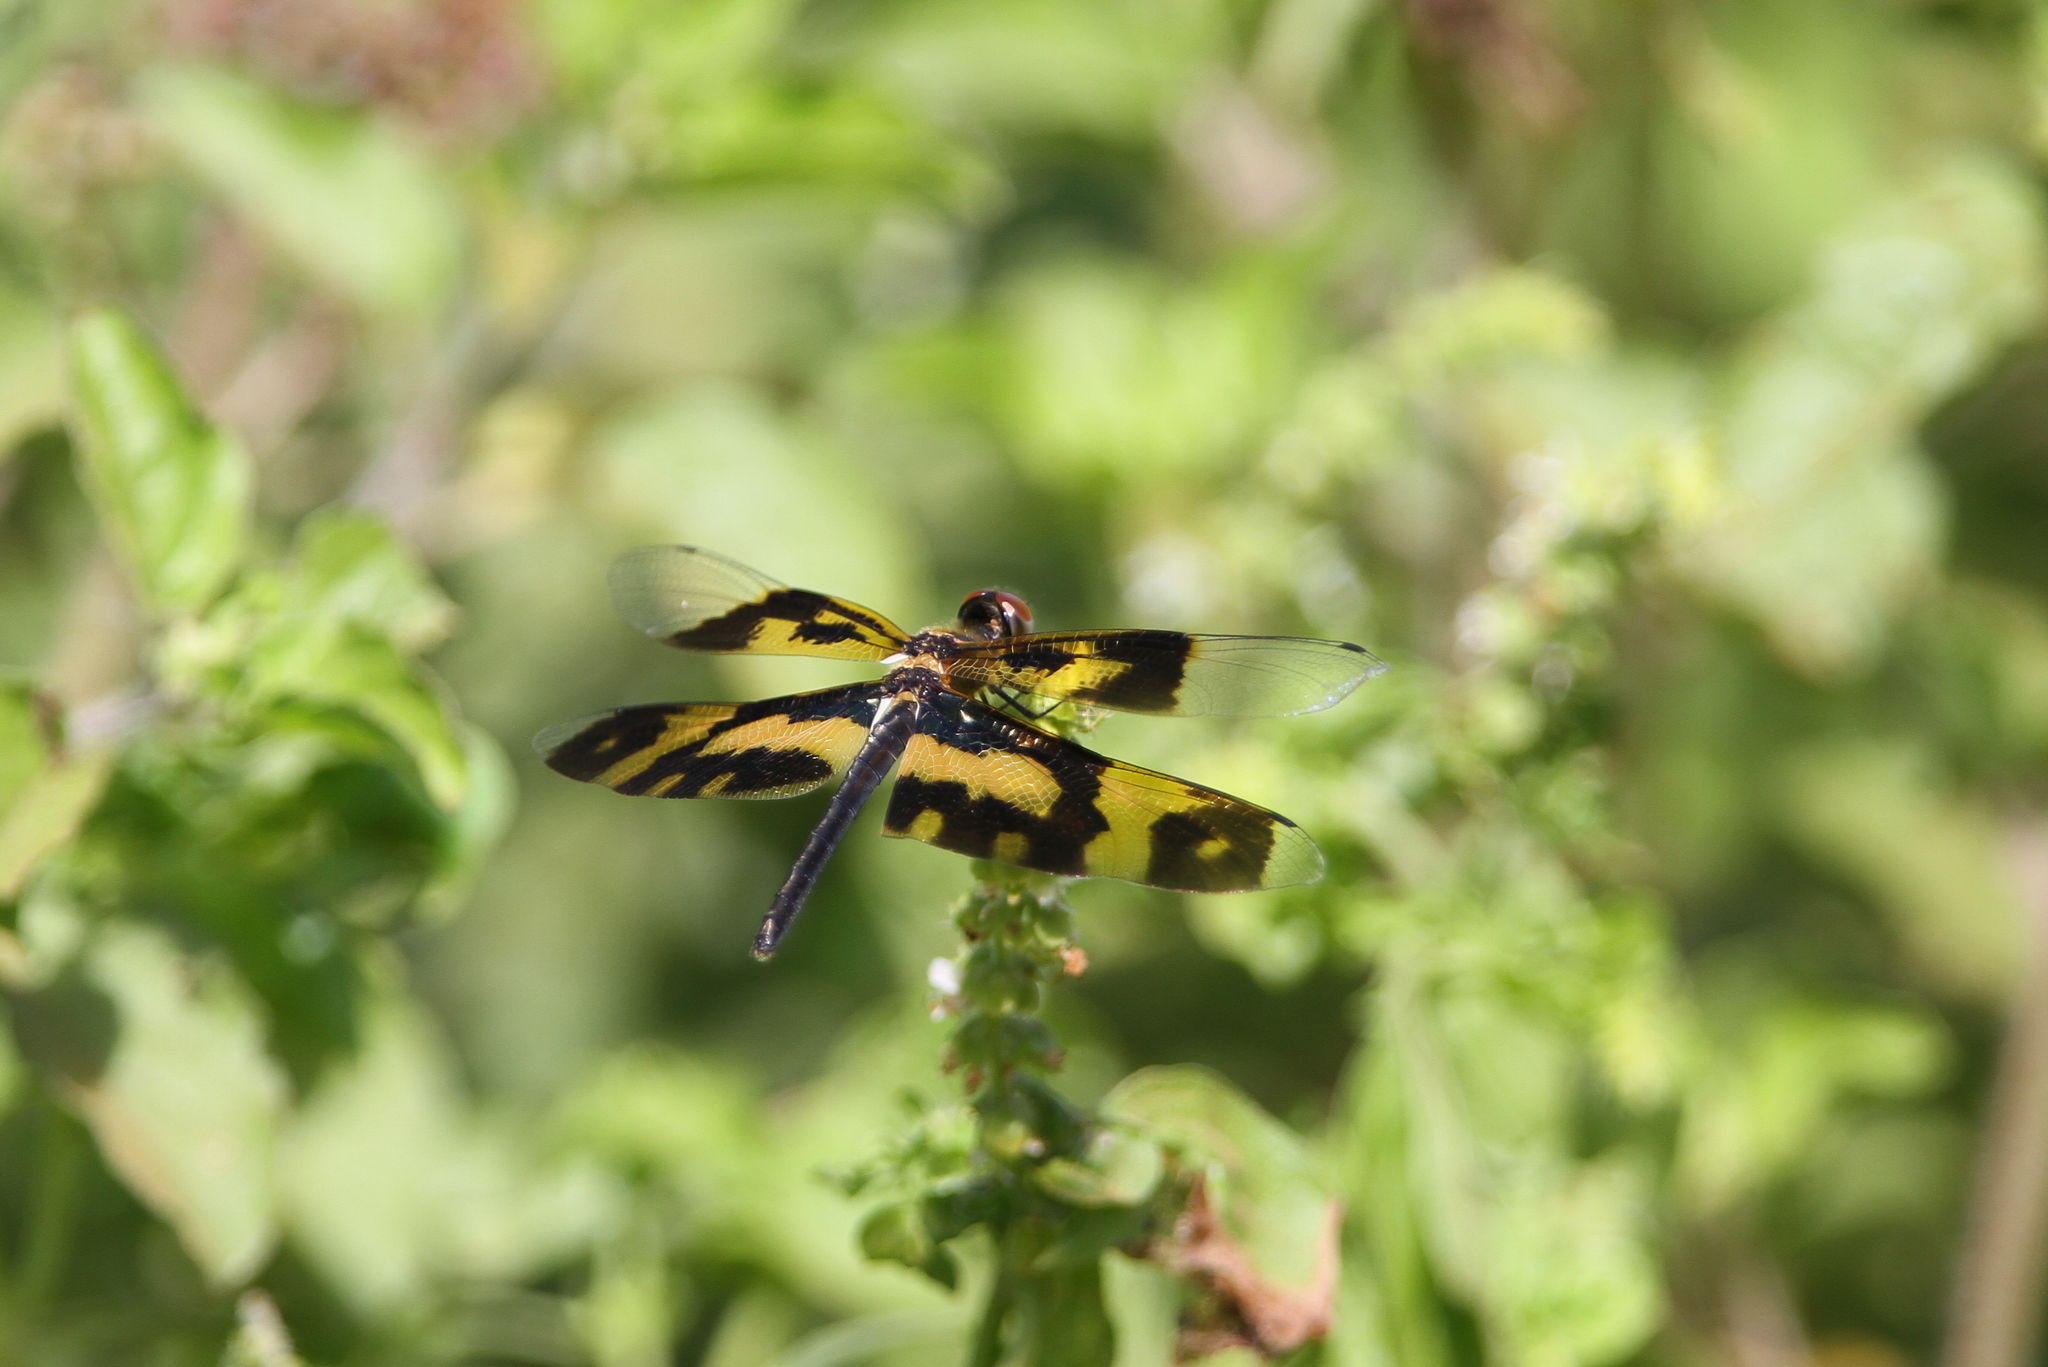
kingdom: Animalia
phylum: Arthropoda
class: Insecta
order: Odonata
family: Libellulidae
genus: Rhyothemis
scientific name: Rhyothemis variegata
